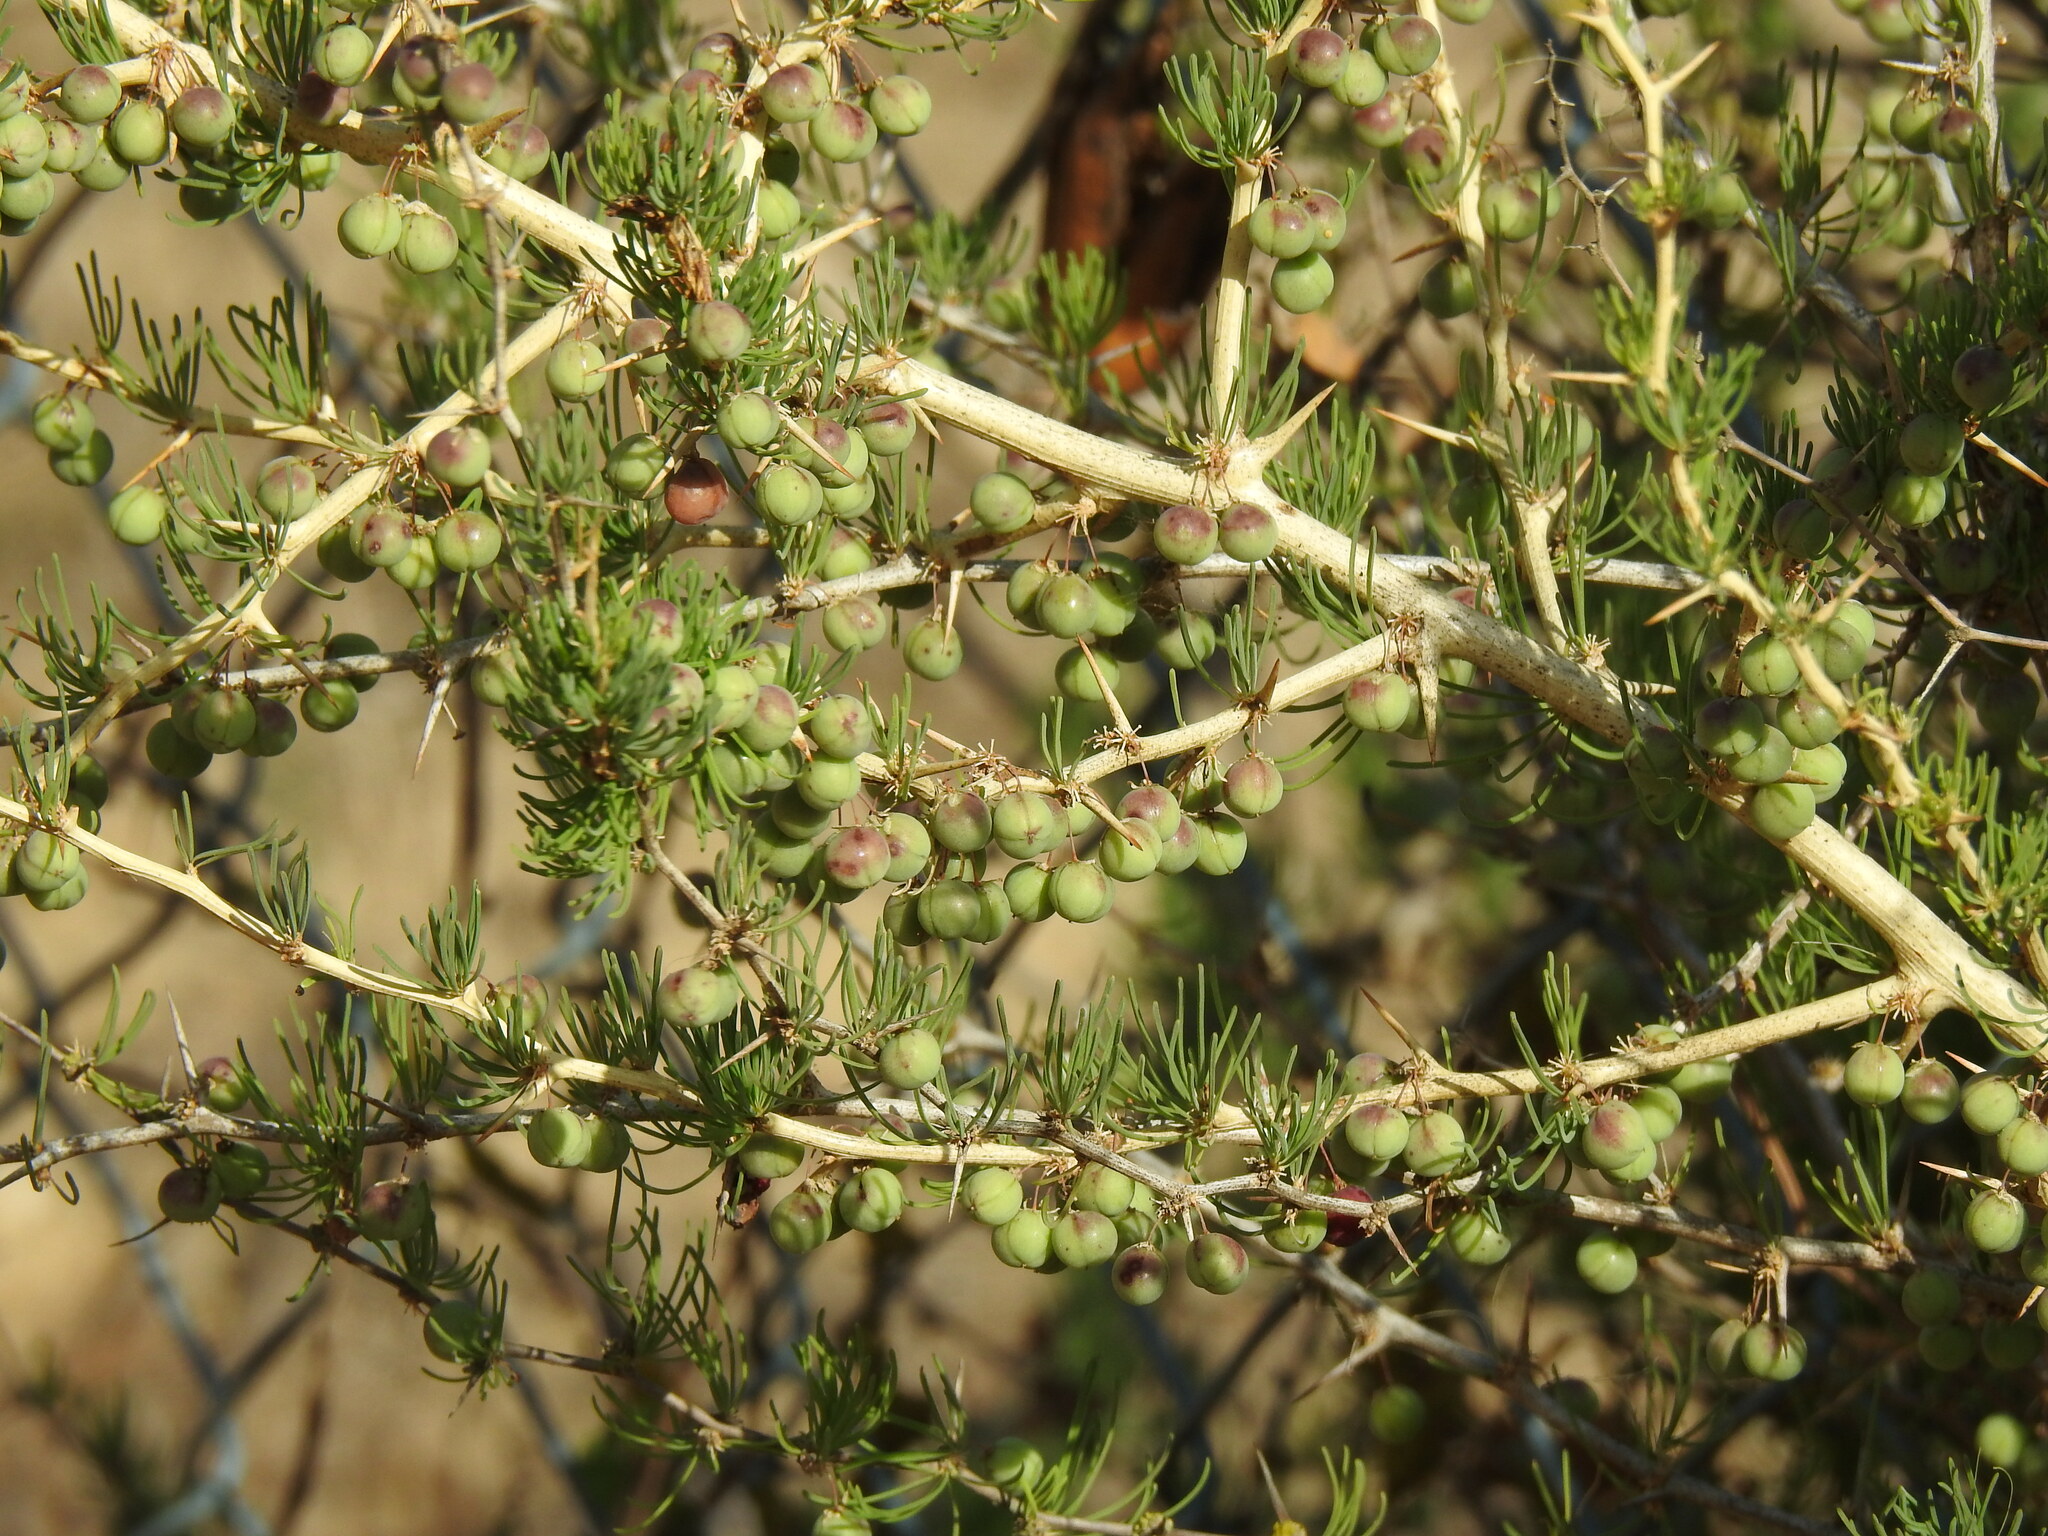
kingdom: Plantae
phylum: Tracheophyta
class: Liliopsida
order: Asparagales
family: Asparagaceae
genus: Asparagus
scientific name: Asparagus albus
